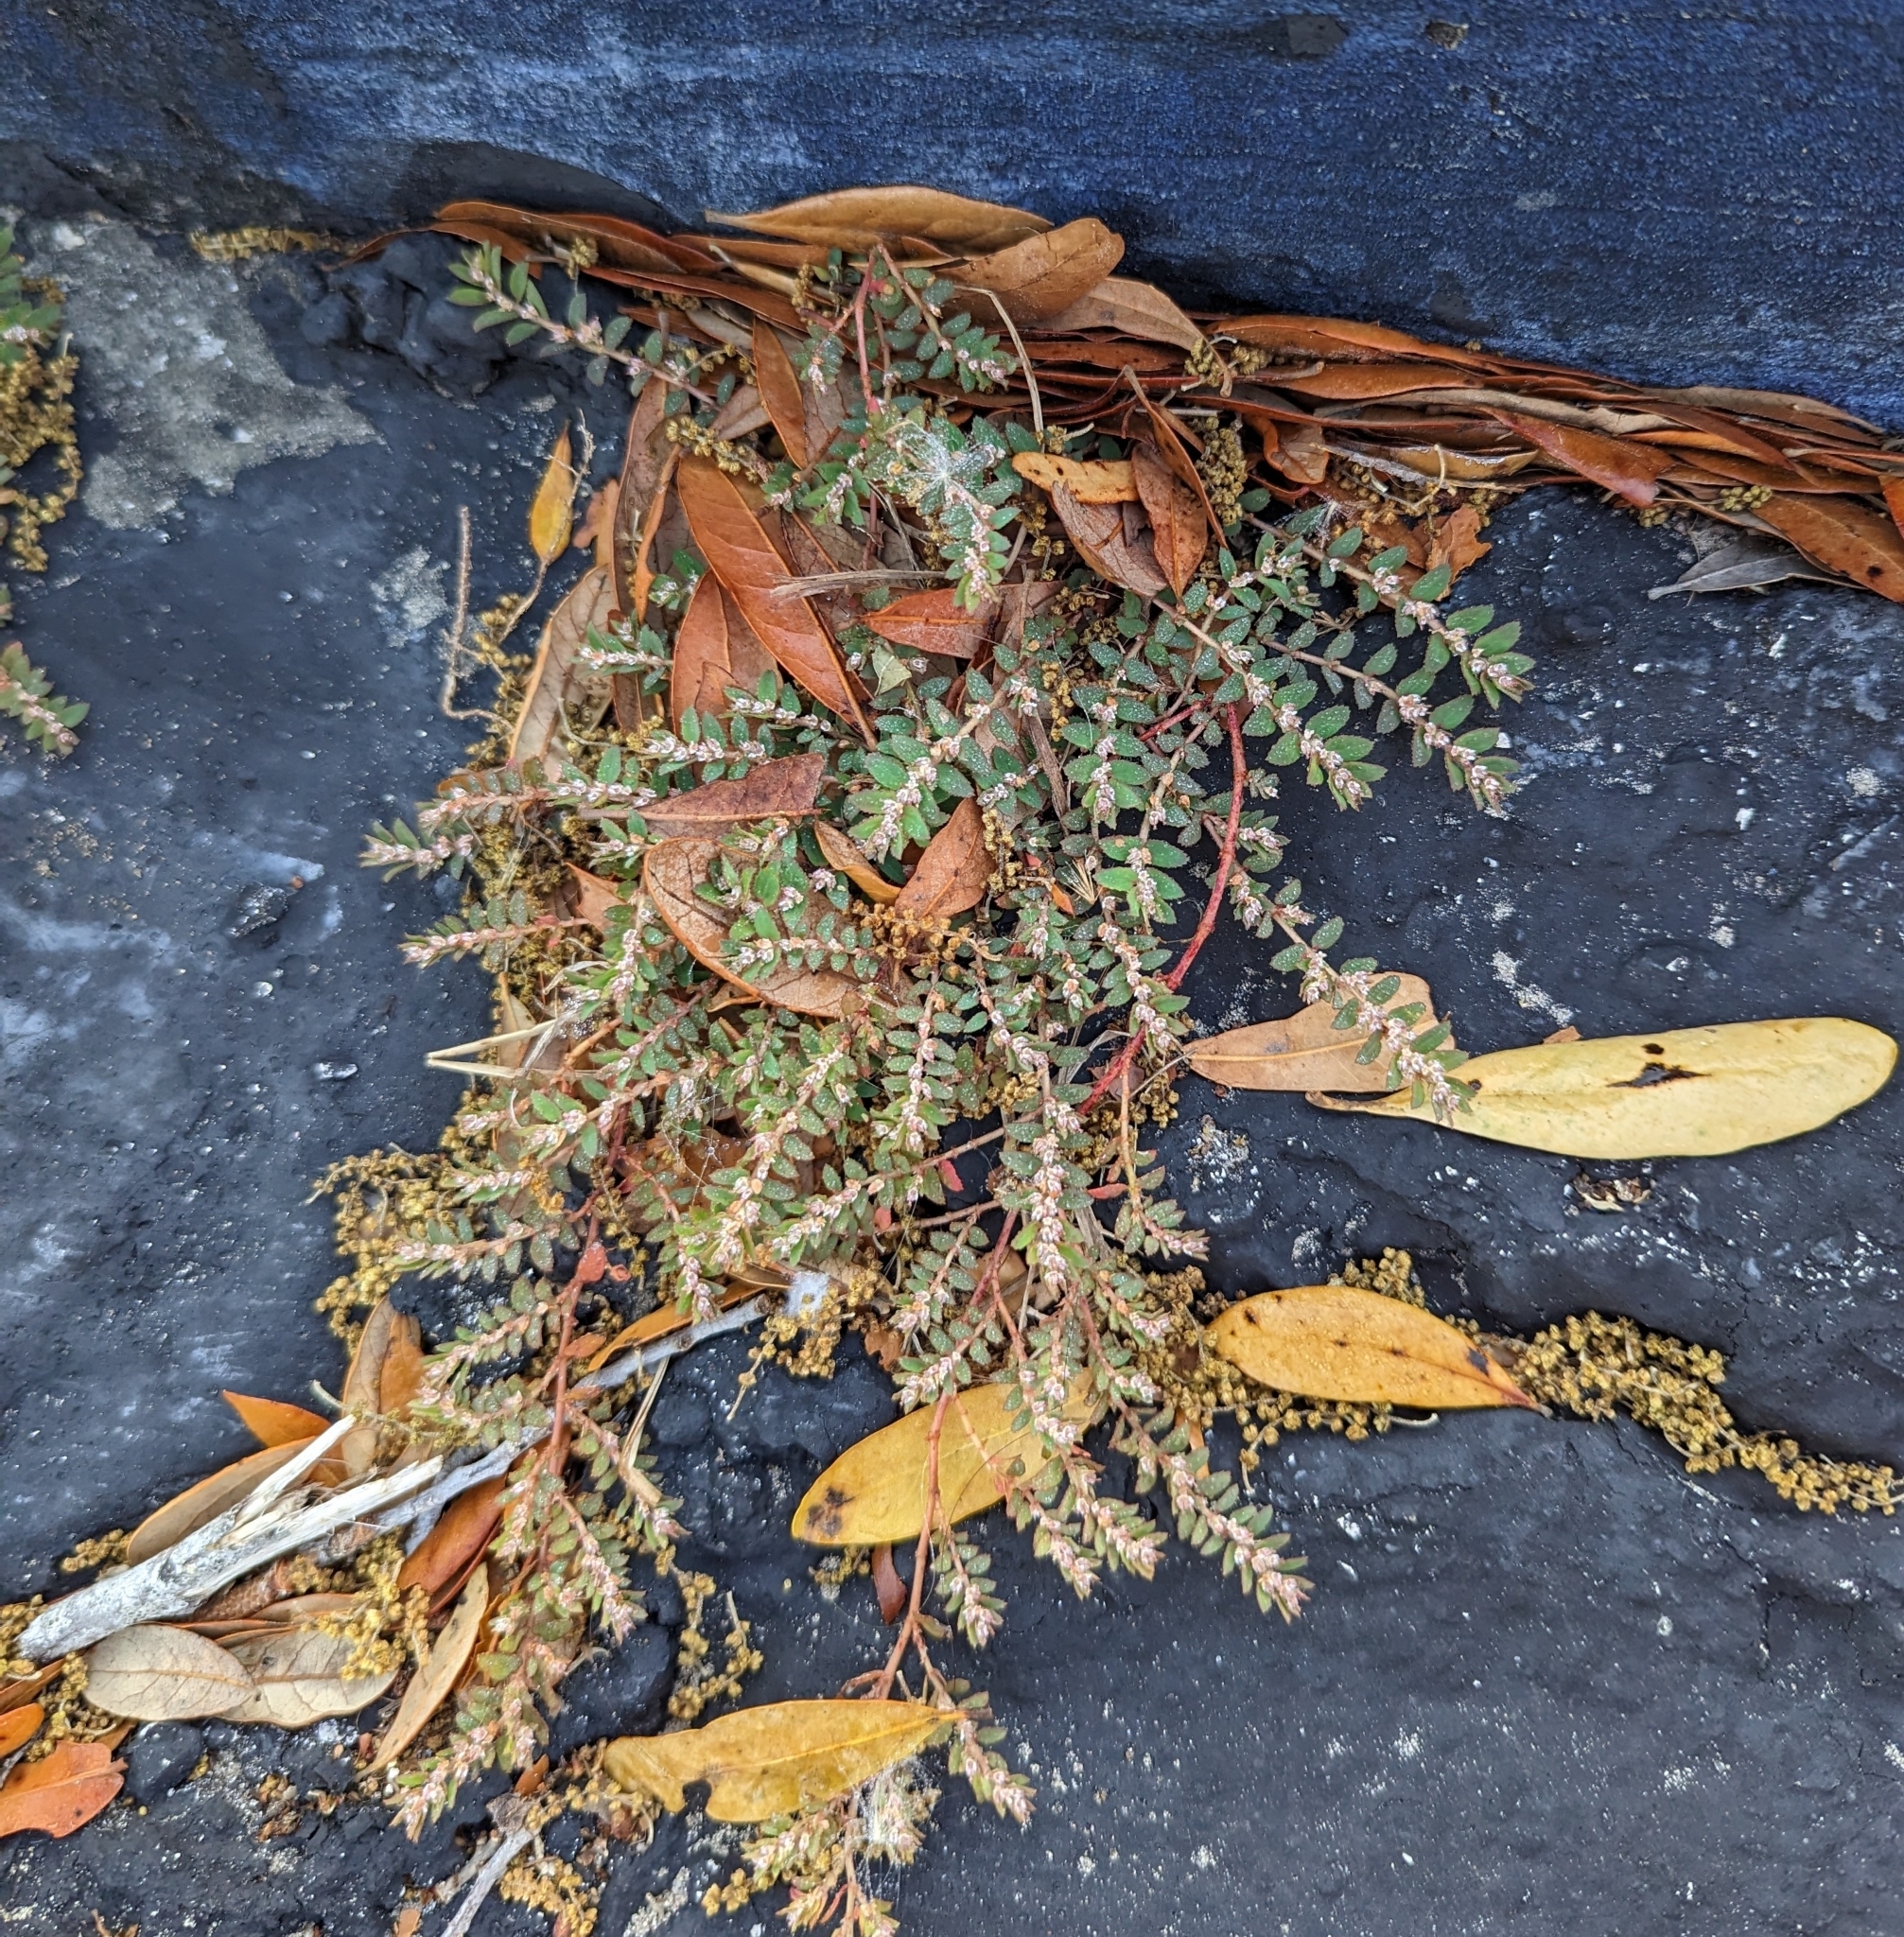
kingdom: Plantae
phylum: Tracheophyta
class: Magnoliopsida
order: Malpighiales
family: Euphorbiaceae
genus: Euphorbia
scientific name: Euphorbia thymifolia
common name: Gulf sandmat
